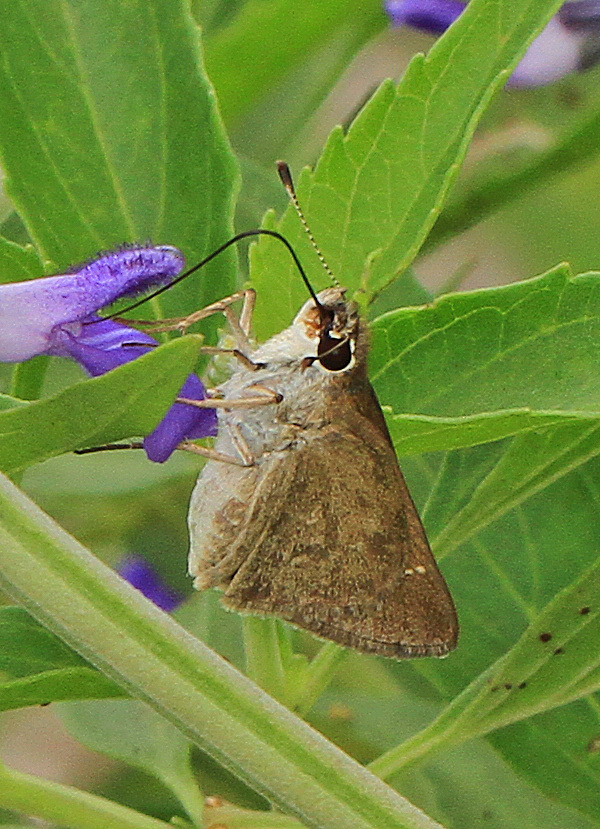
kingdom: Animalia
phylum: Arthropoda
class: Insecta
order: Lepidoptera
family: Hesperiidae
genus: Lerodea
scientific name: Lerodea eufala
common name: Eufala skipper
